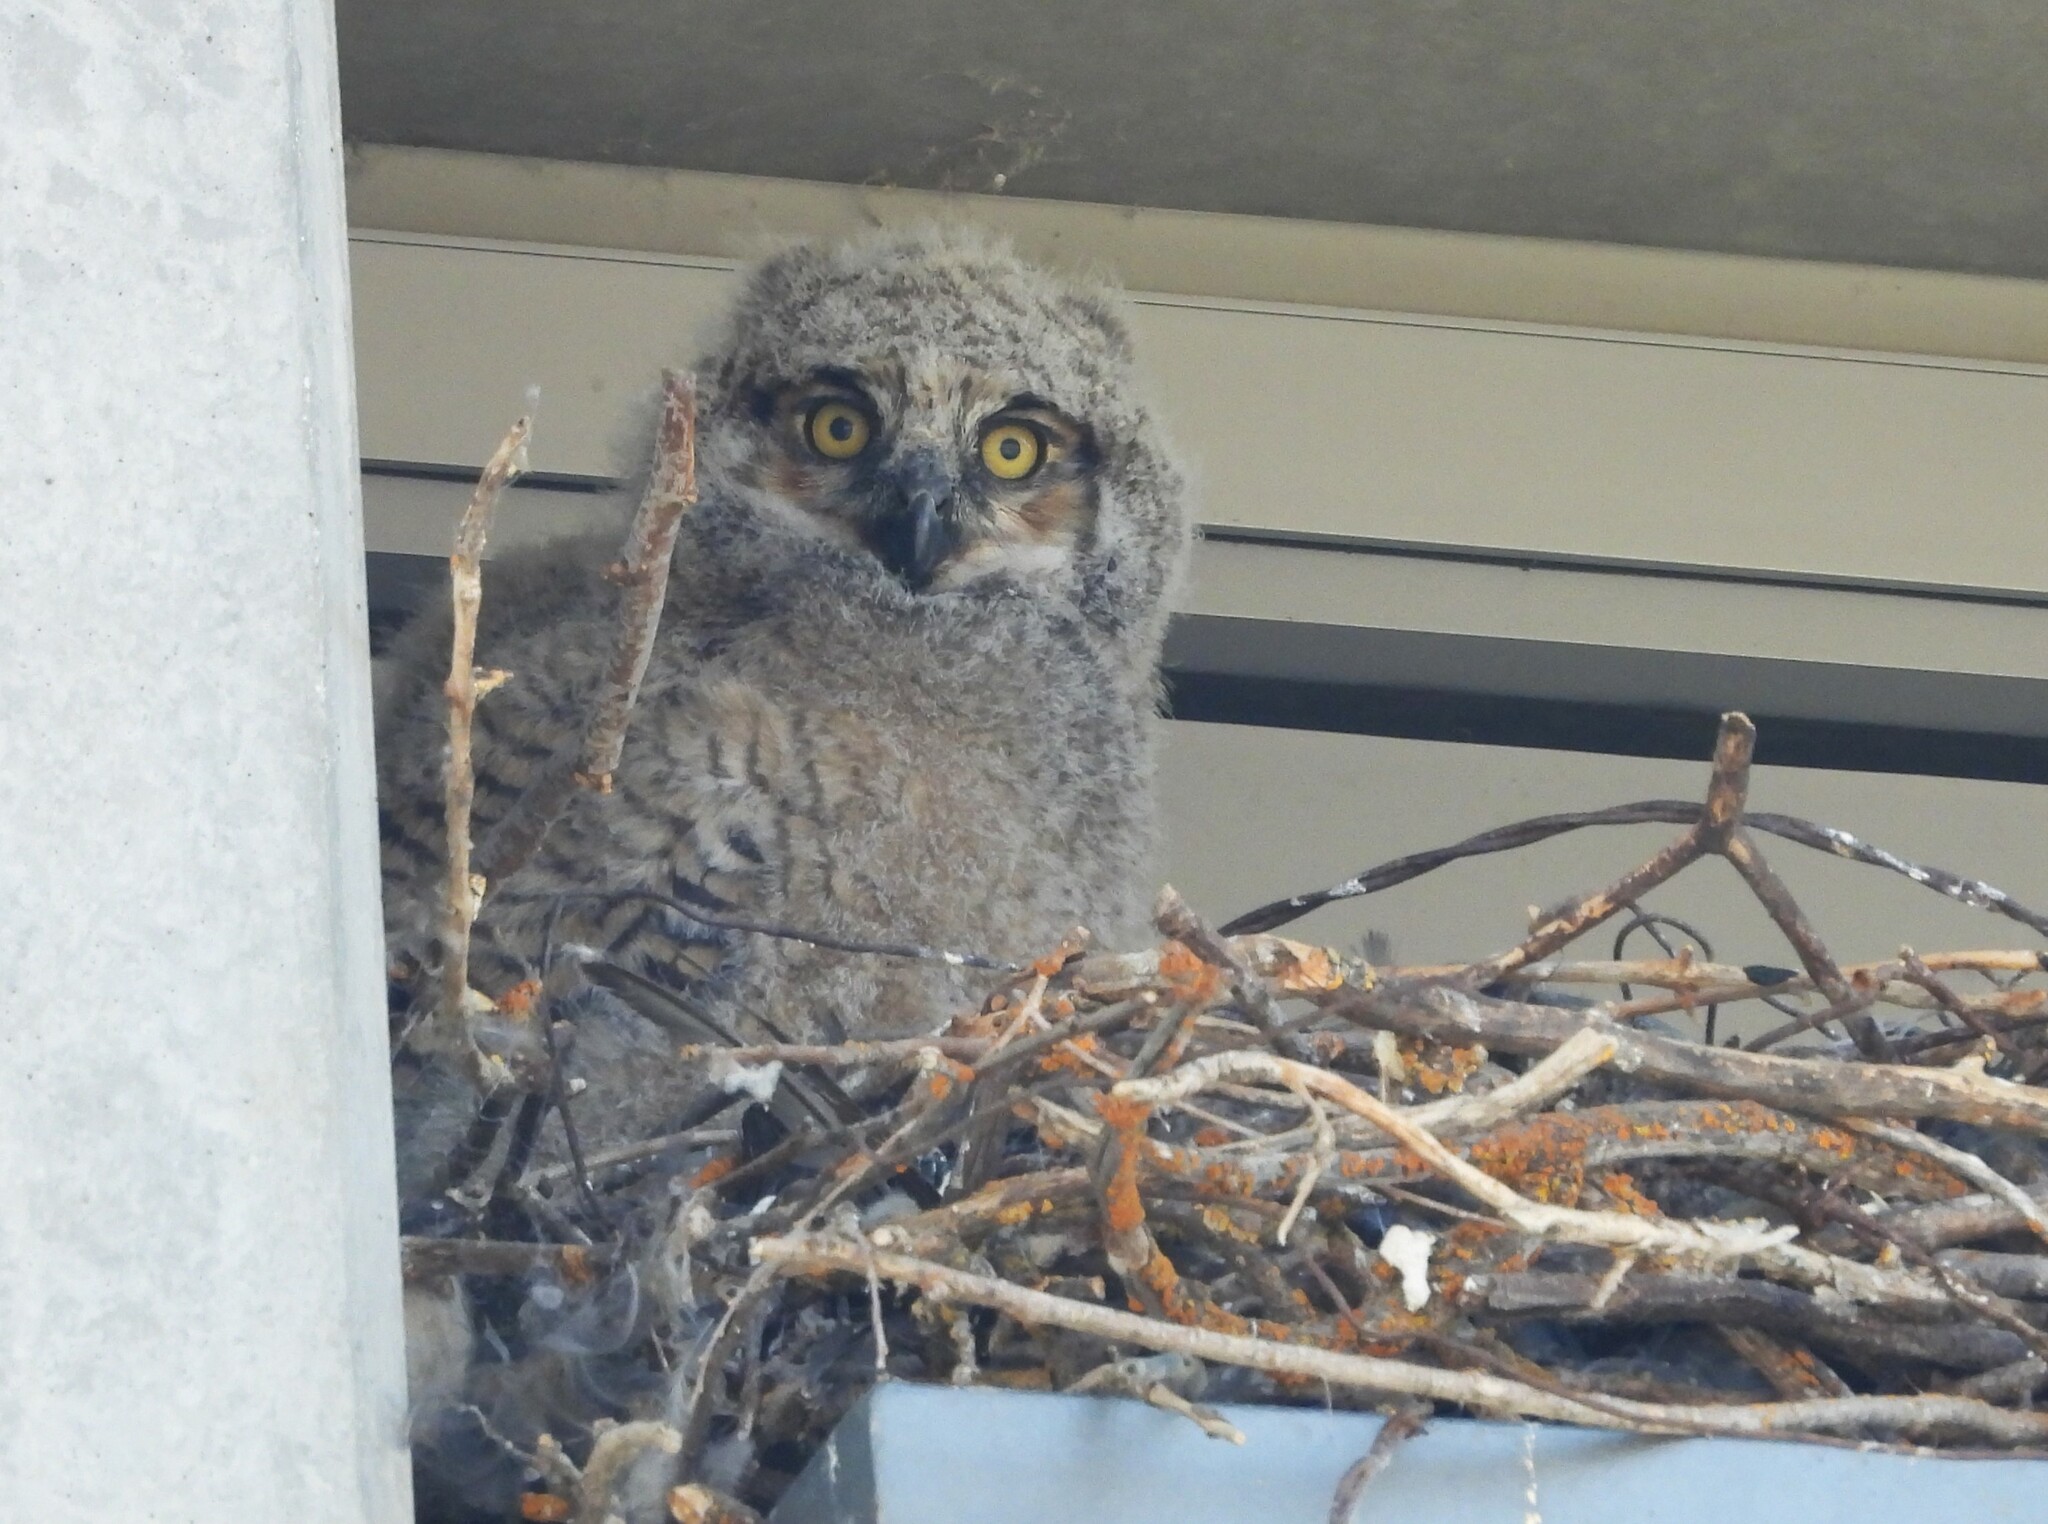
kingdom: Animalia
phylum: Chordata
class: Aves
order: Strigiformes
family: Strigidae
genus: Bubo
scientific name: Bubo virginianus
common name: Great horned owl
